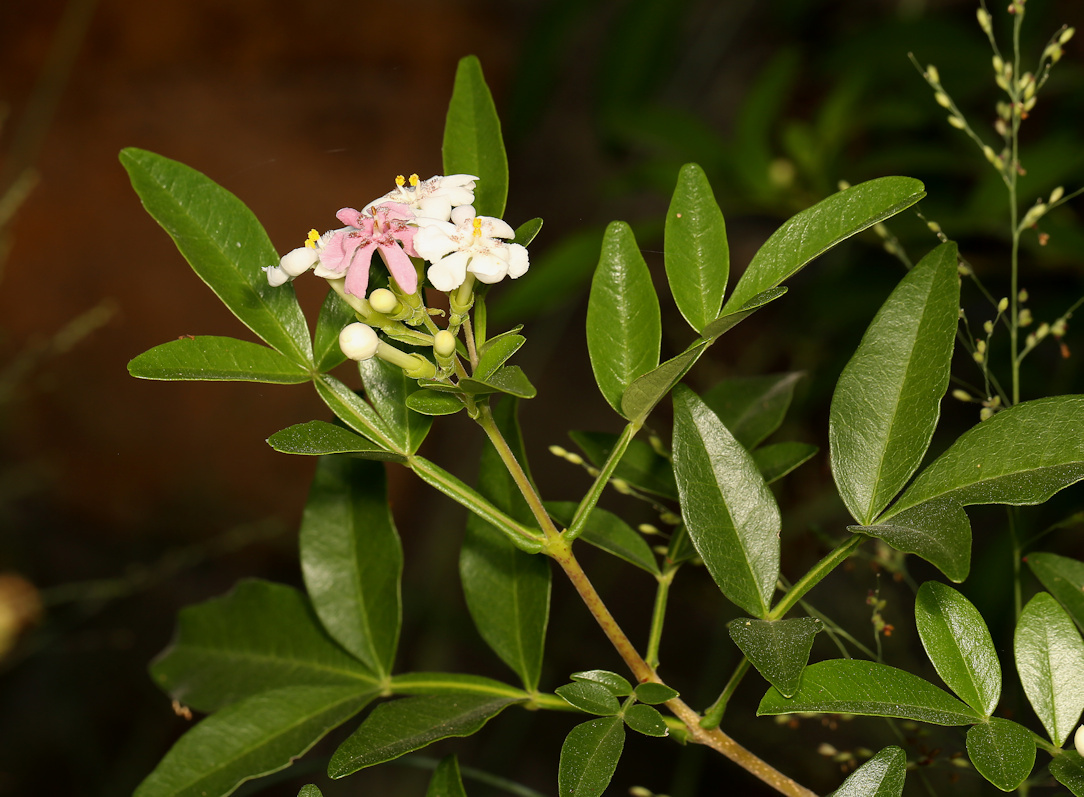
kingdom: Plantae
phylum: Tracheophyta
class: Magnoliopsida
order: Lamiales
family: Oleaceae
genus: Schrebera
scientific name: Schrebera alata
